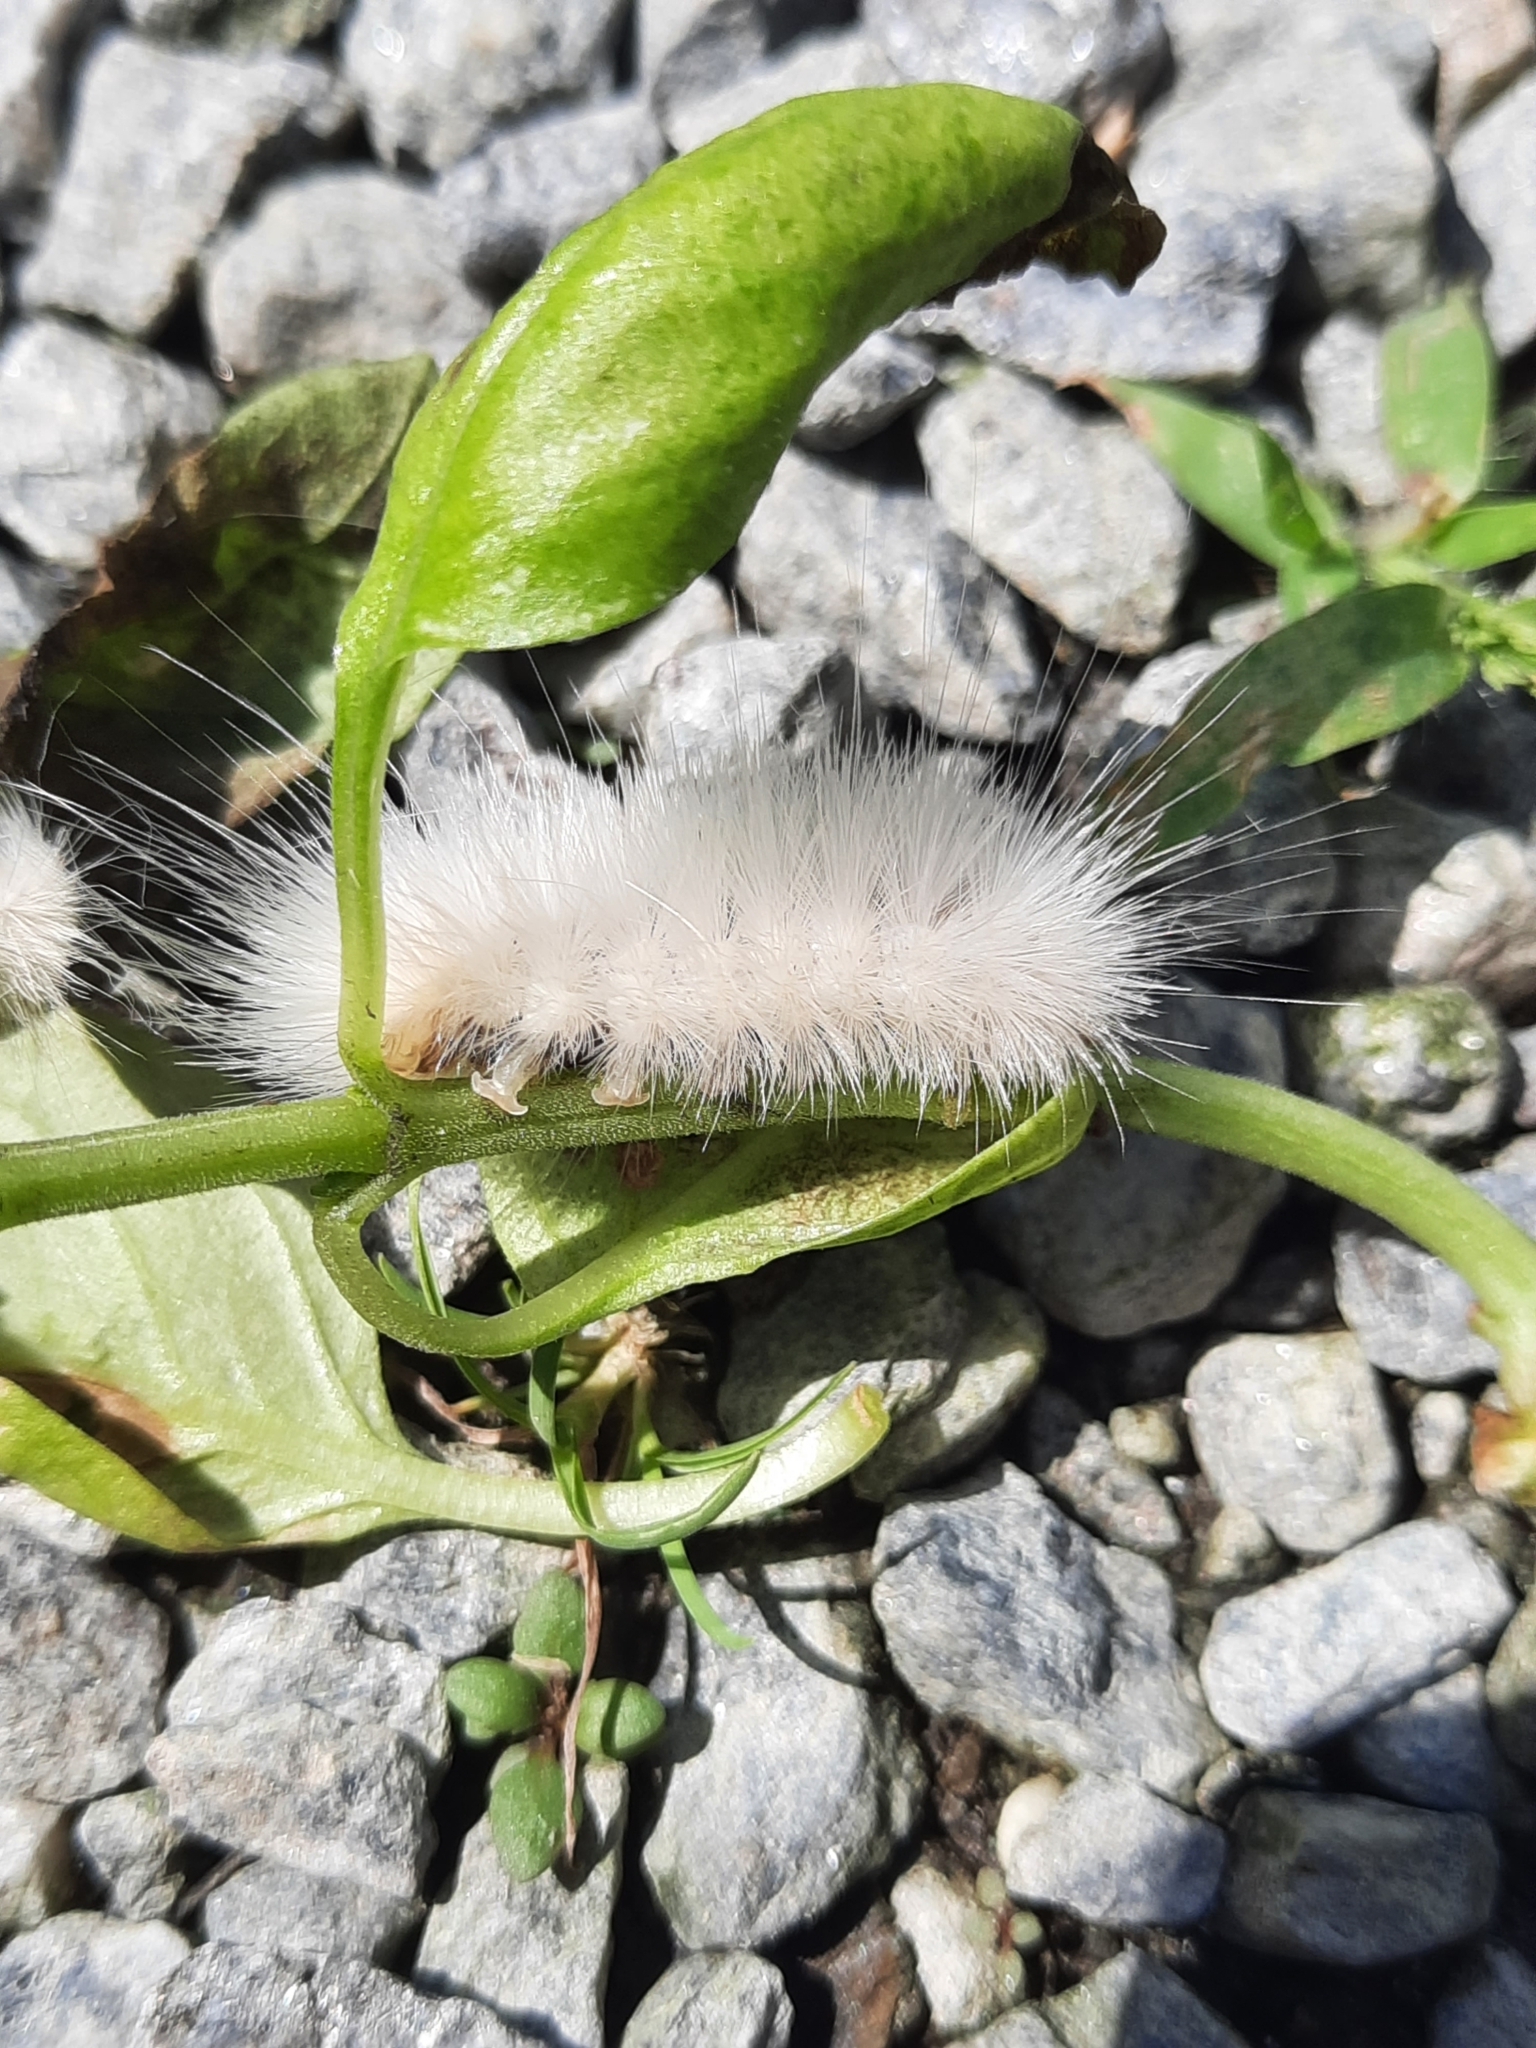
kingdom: Animalia
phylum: Arthropoda
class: Insecta
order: Lepidoptera
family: Erebidae
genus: Spilosoma
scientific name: Spilosoma virginica
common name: Virginia tiger moth
